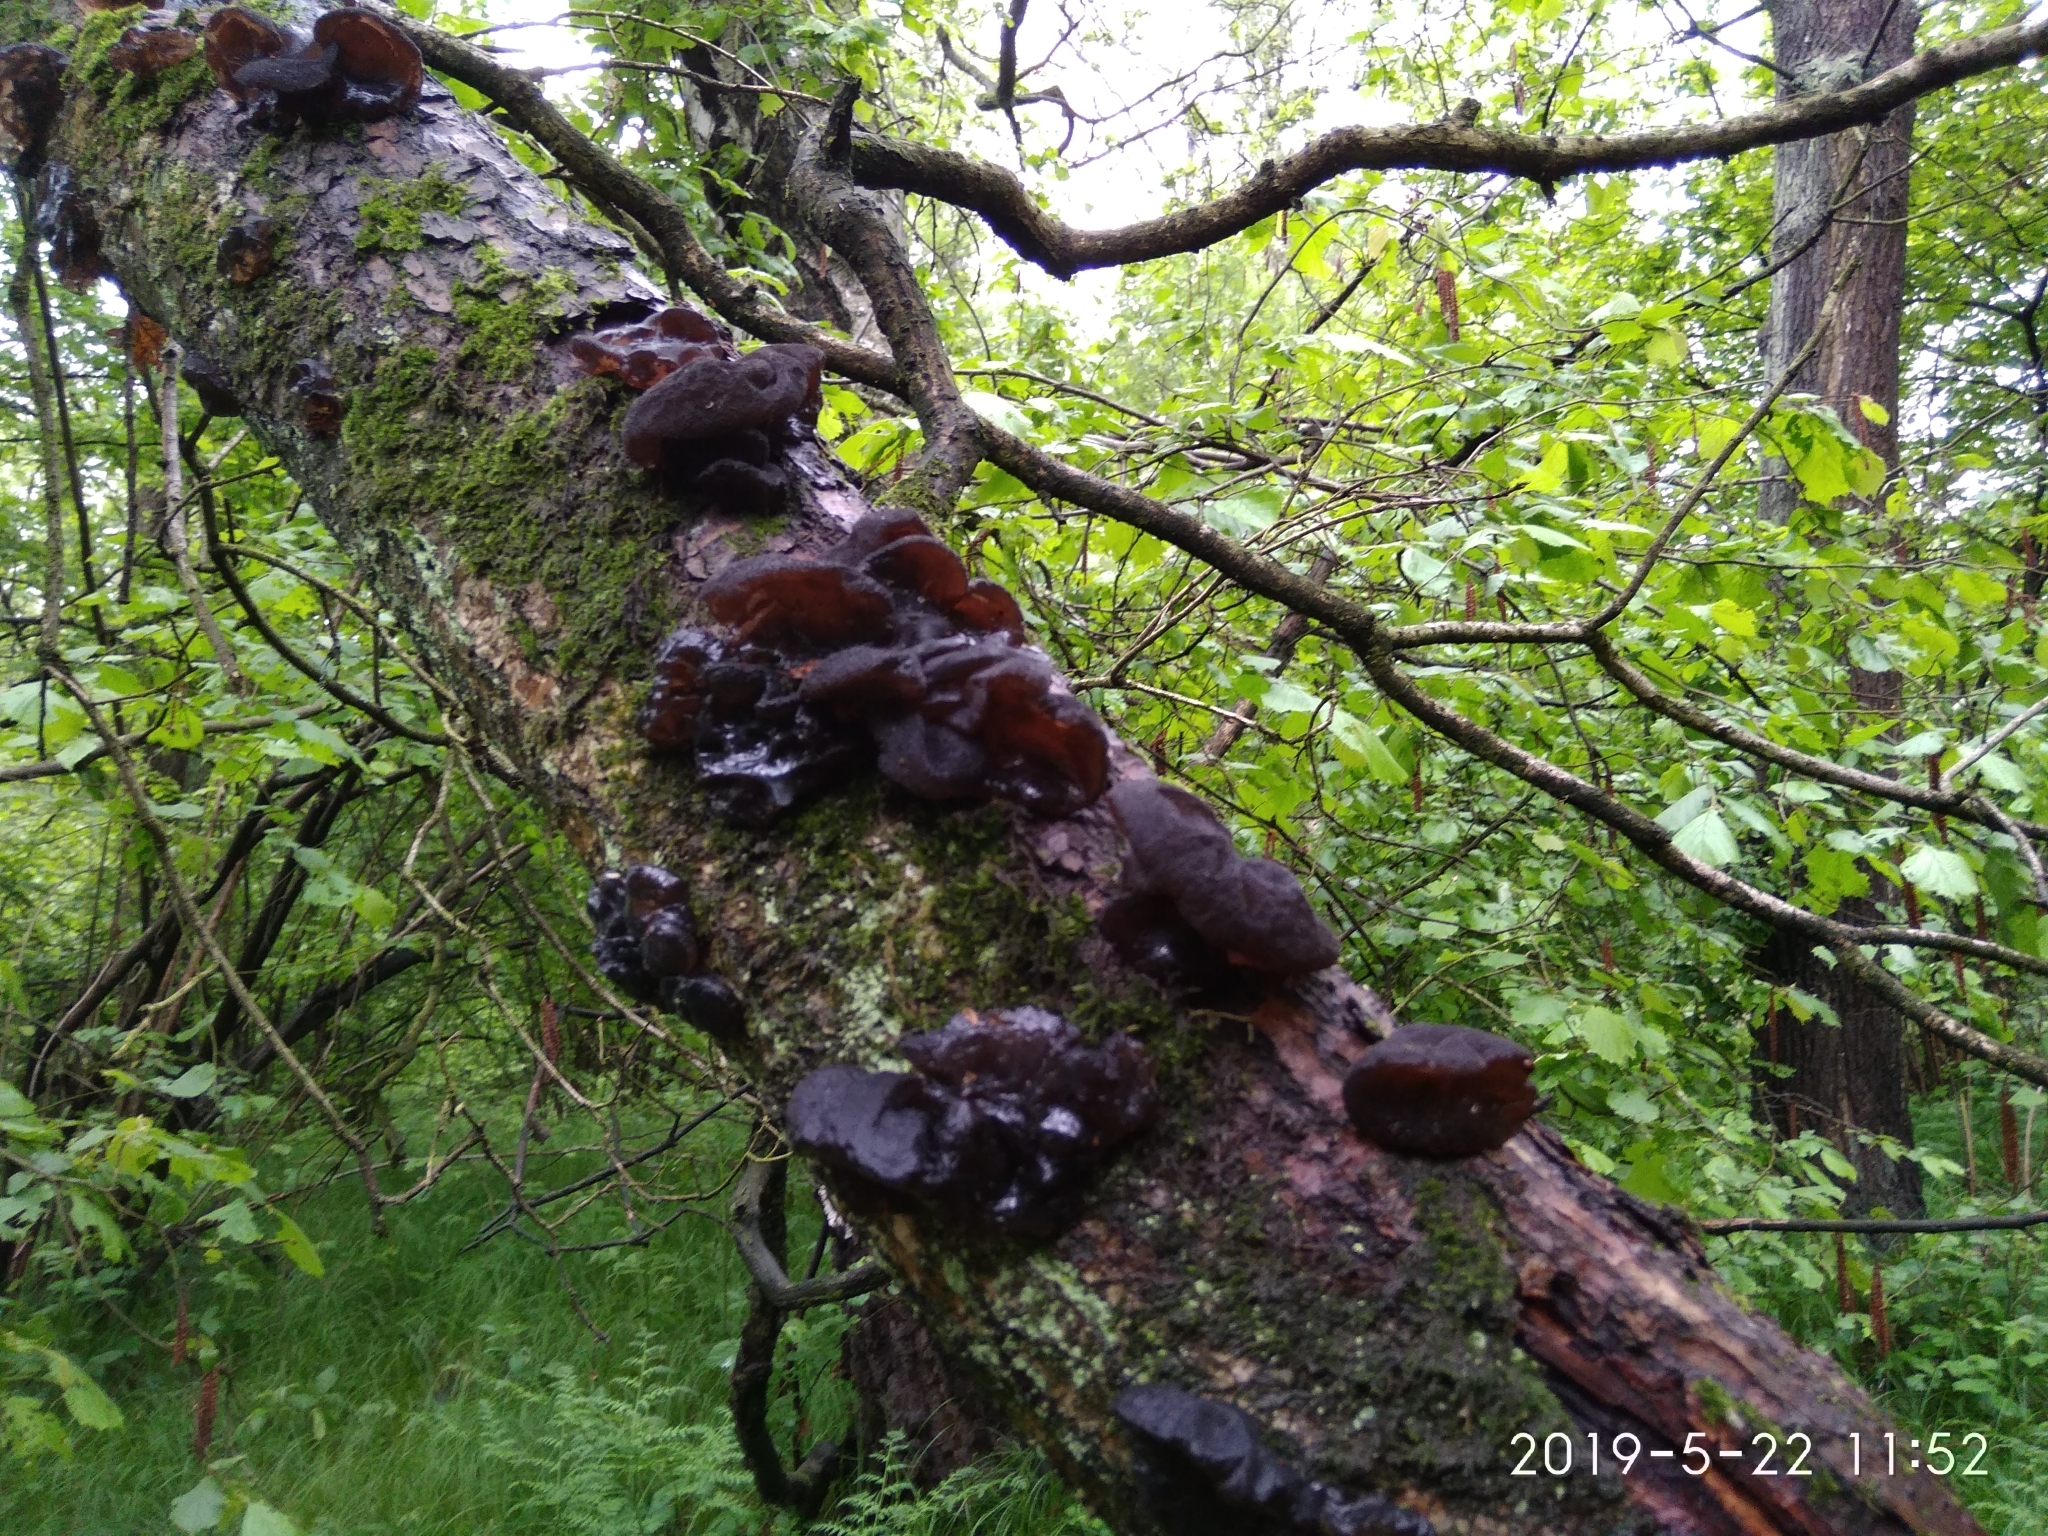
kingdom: Fungi
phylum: Basidiomycota
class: Agaricomycetes
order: Auriculariales
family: Auriculariaceae
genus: Exidia
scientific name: Exidia glandulosa
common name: Witches' butter
